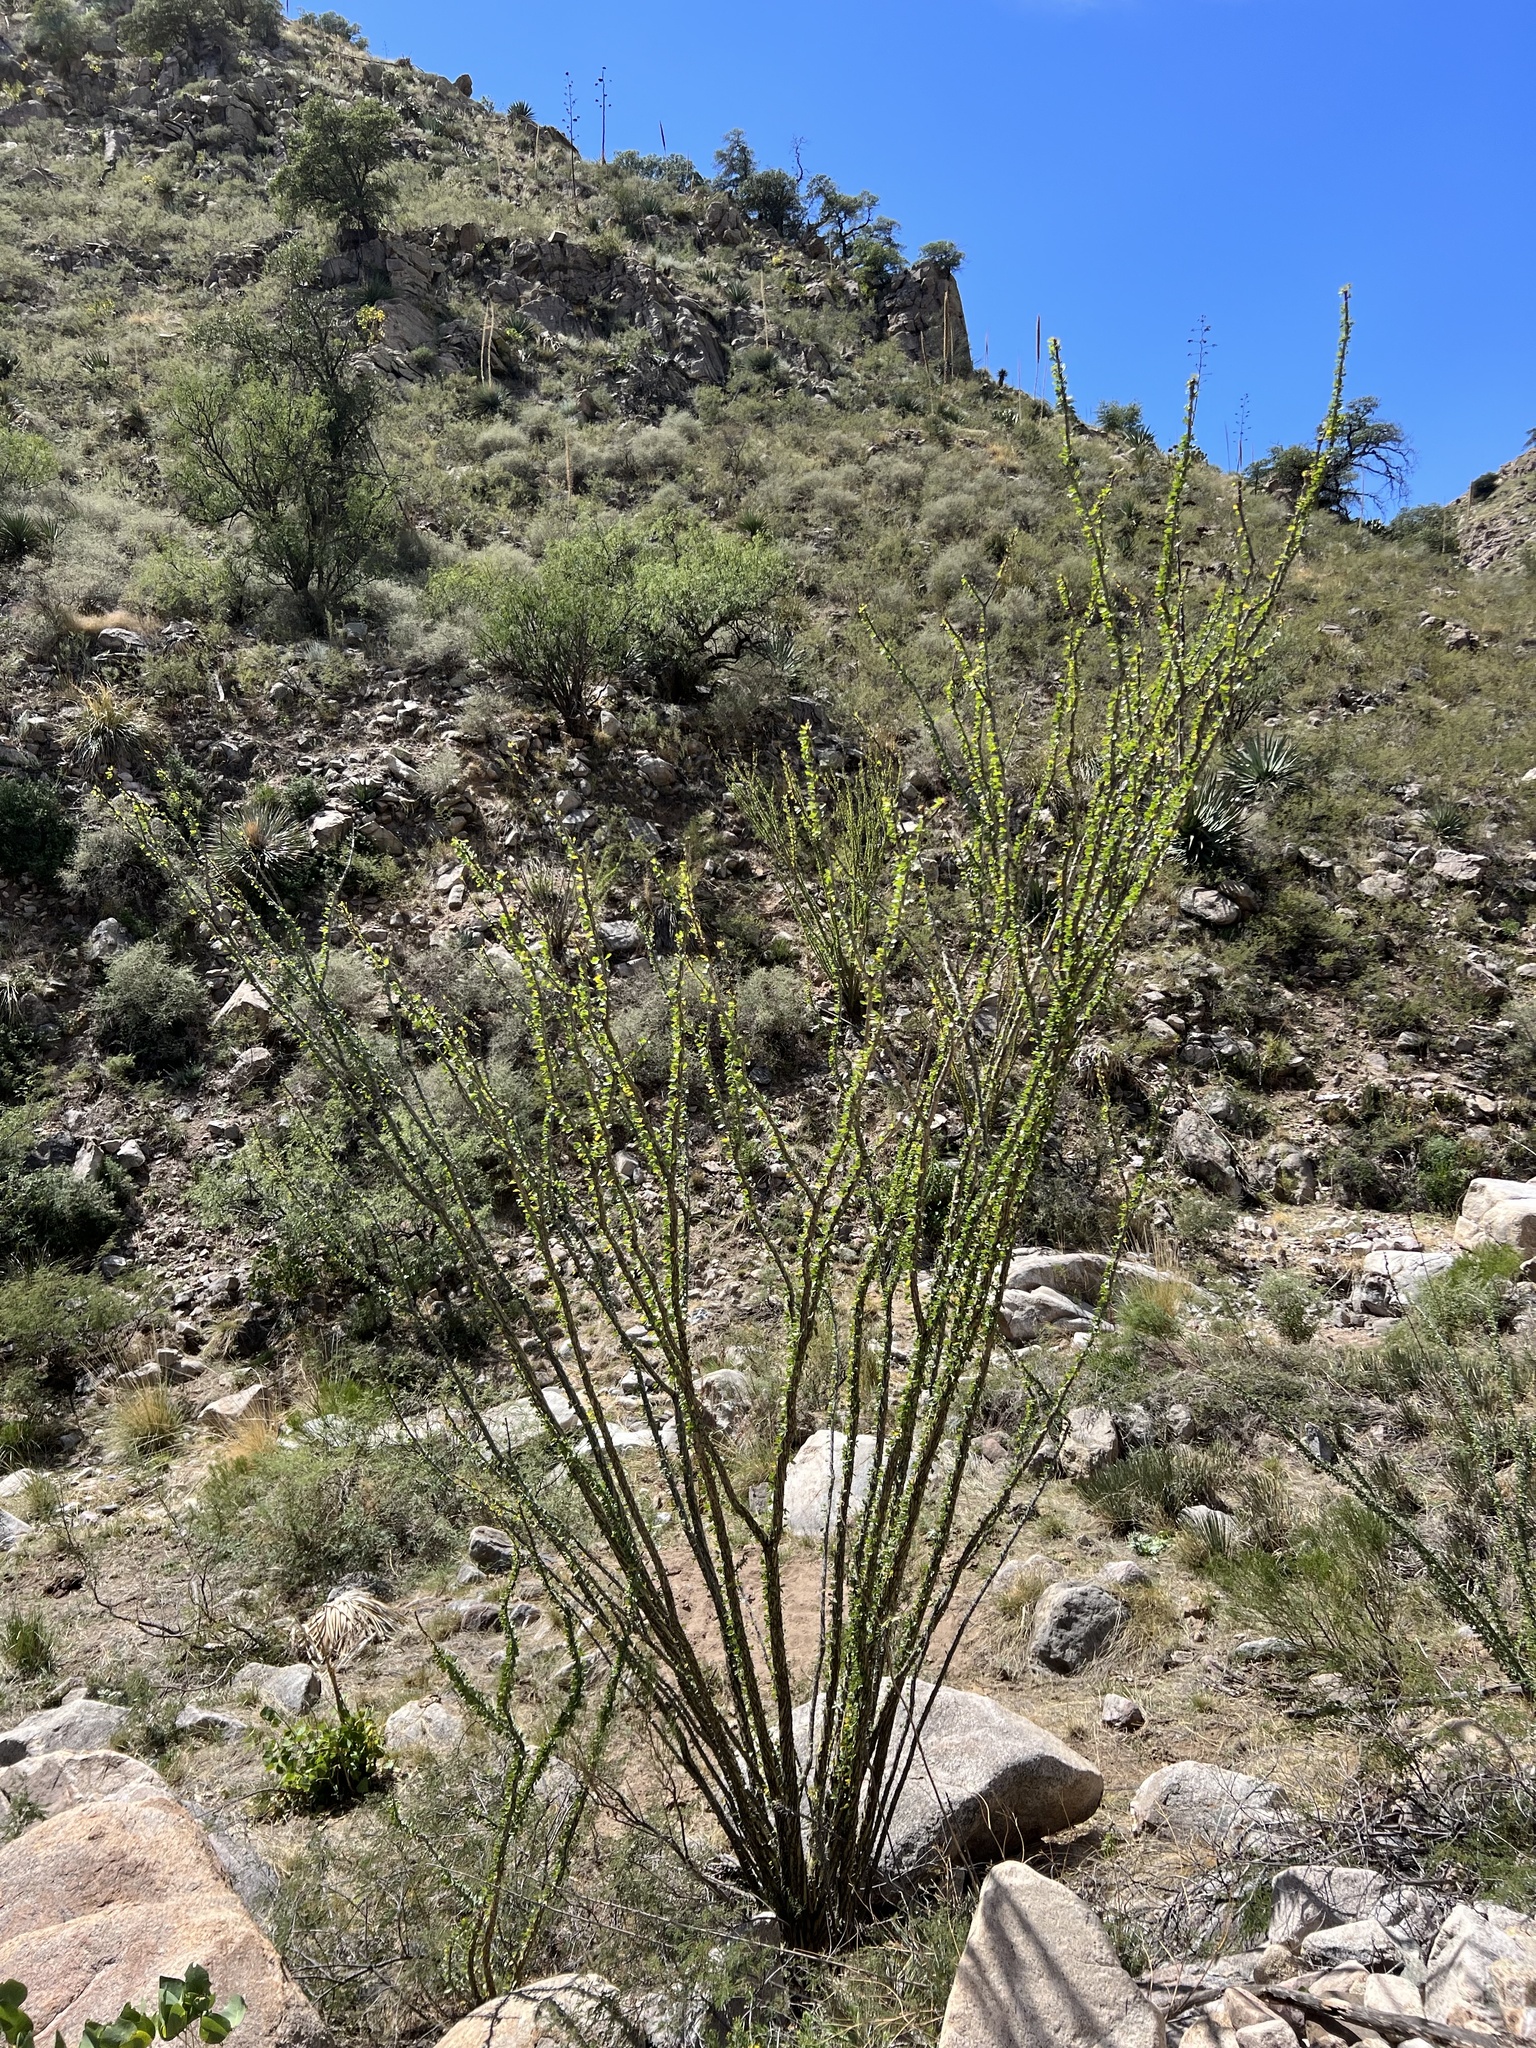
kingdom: Plantae
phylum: Tracheophyta
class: Magnoliopsida
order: Ericales
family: Fouquieriaceae
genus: Fouquieria
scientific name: Fouquieria splendens
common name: Vine-cactus
